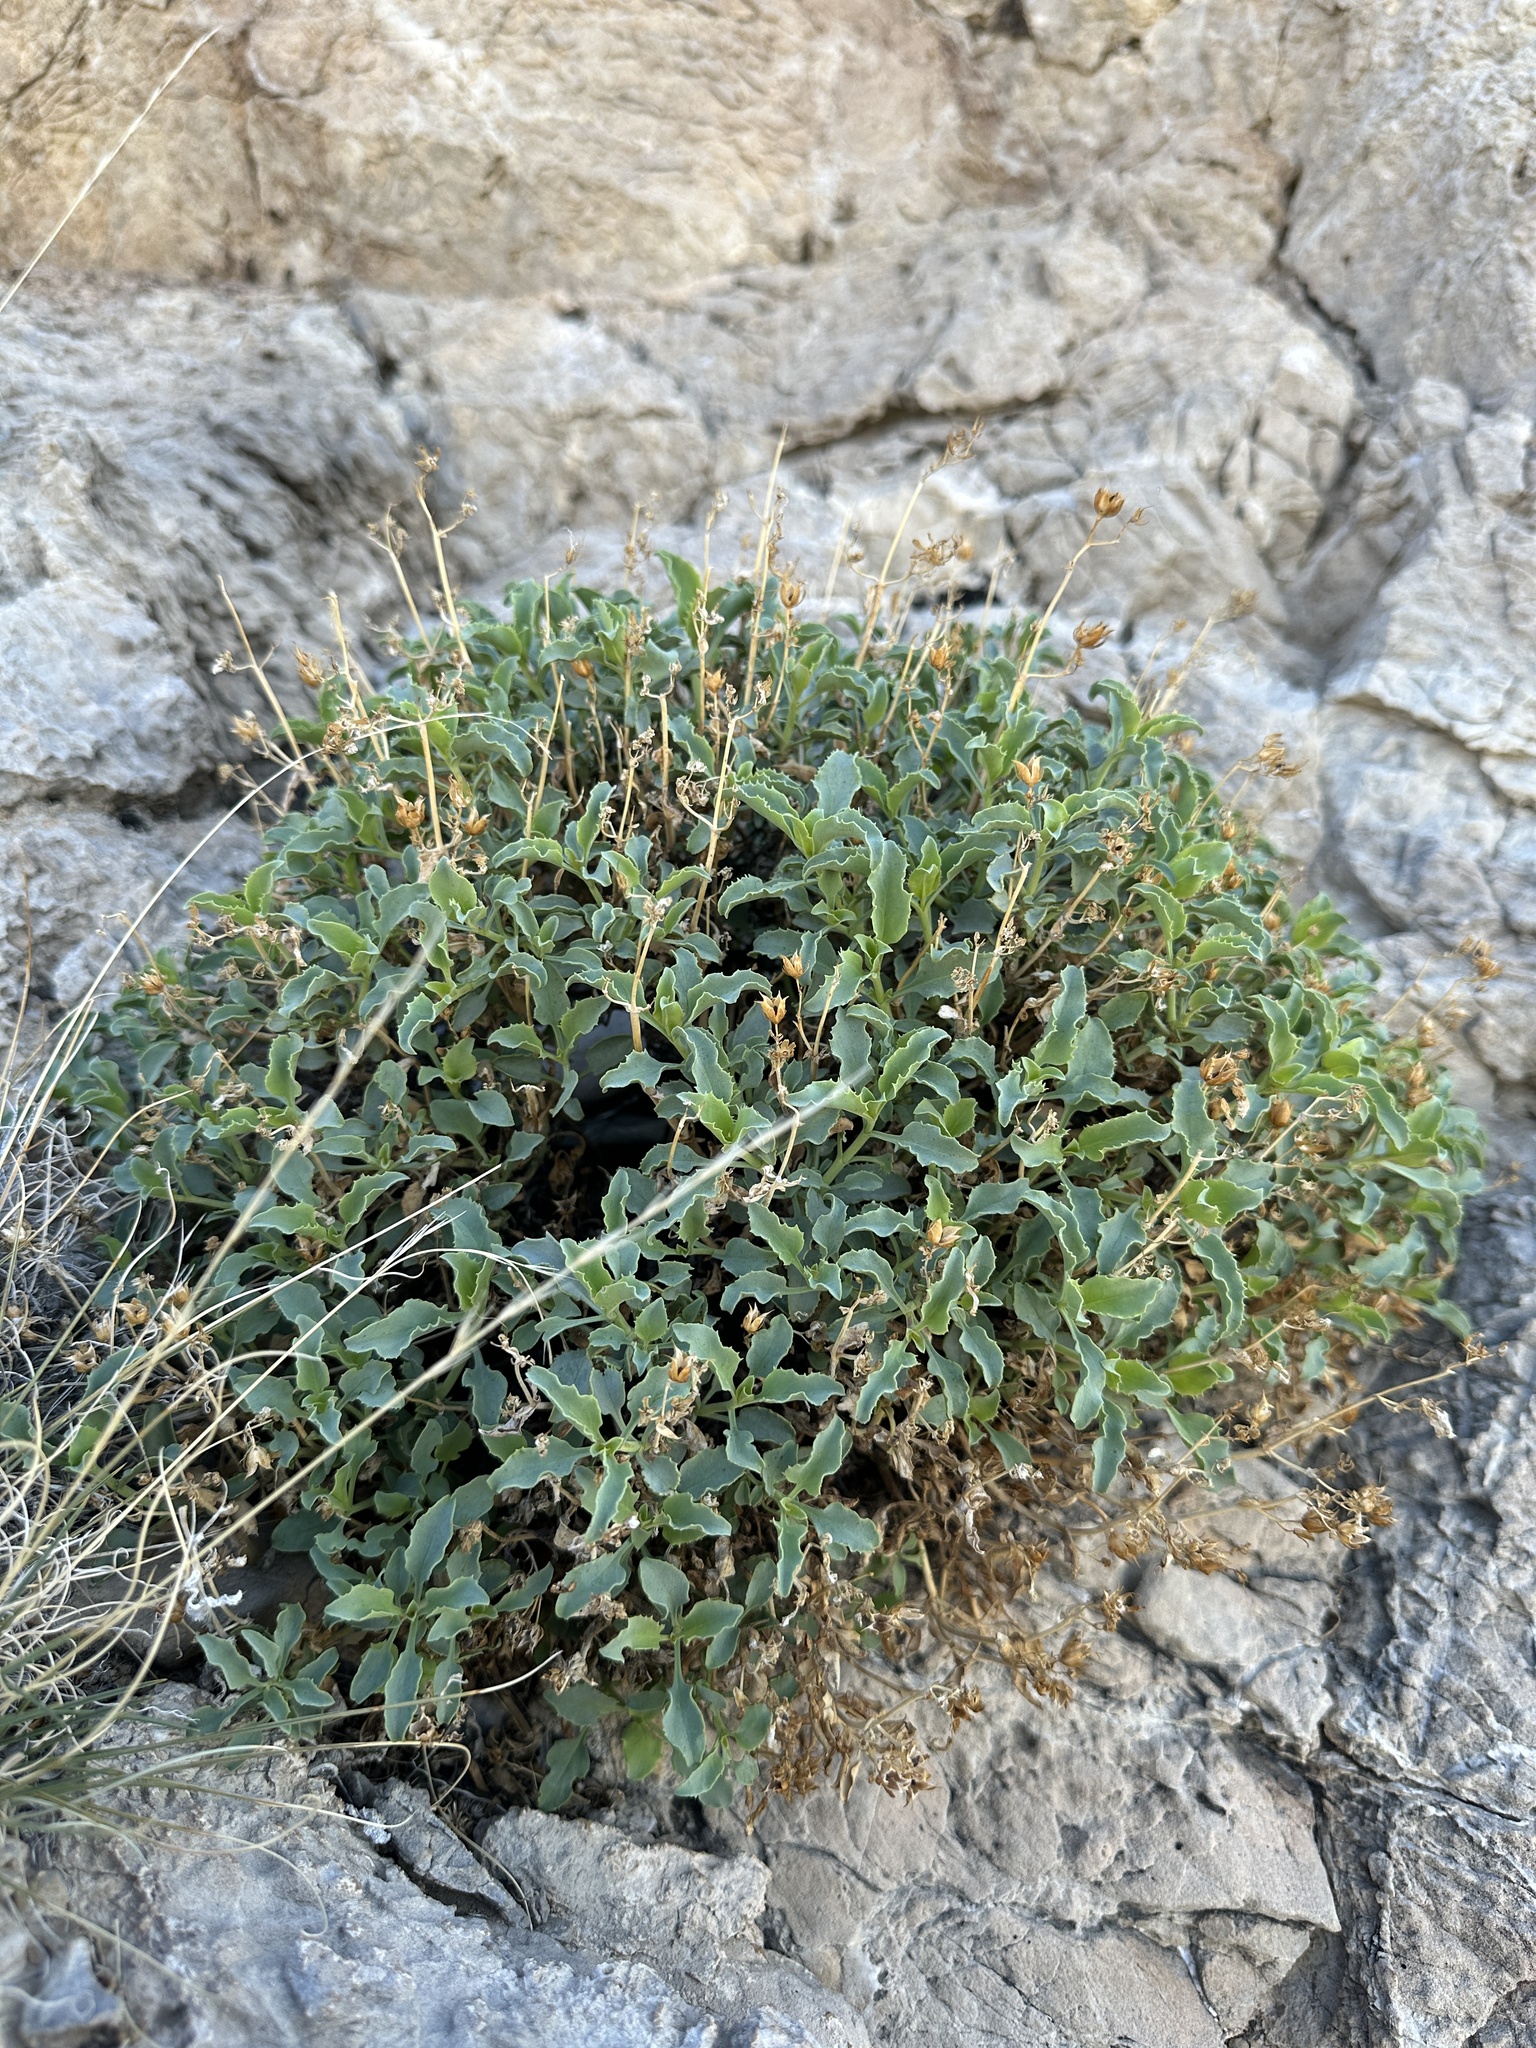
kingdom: Plantae
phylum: Tracheophyta
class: Magnoliopsida
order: Lamiales
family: Plantaginaceae
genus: Penstemon
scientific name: Penstemon petiolatus
